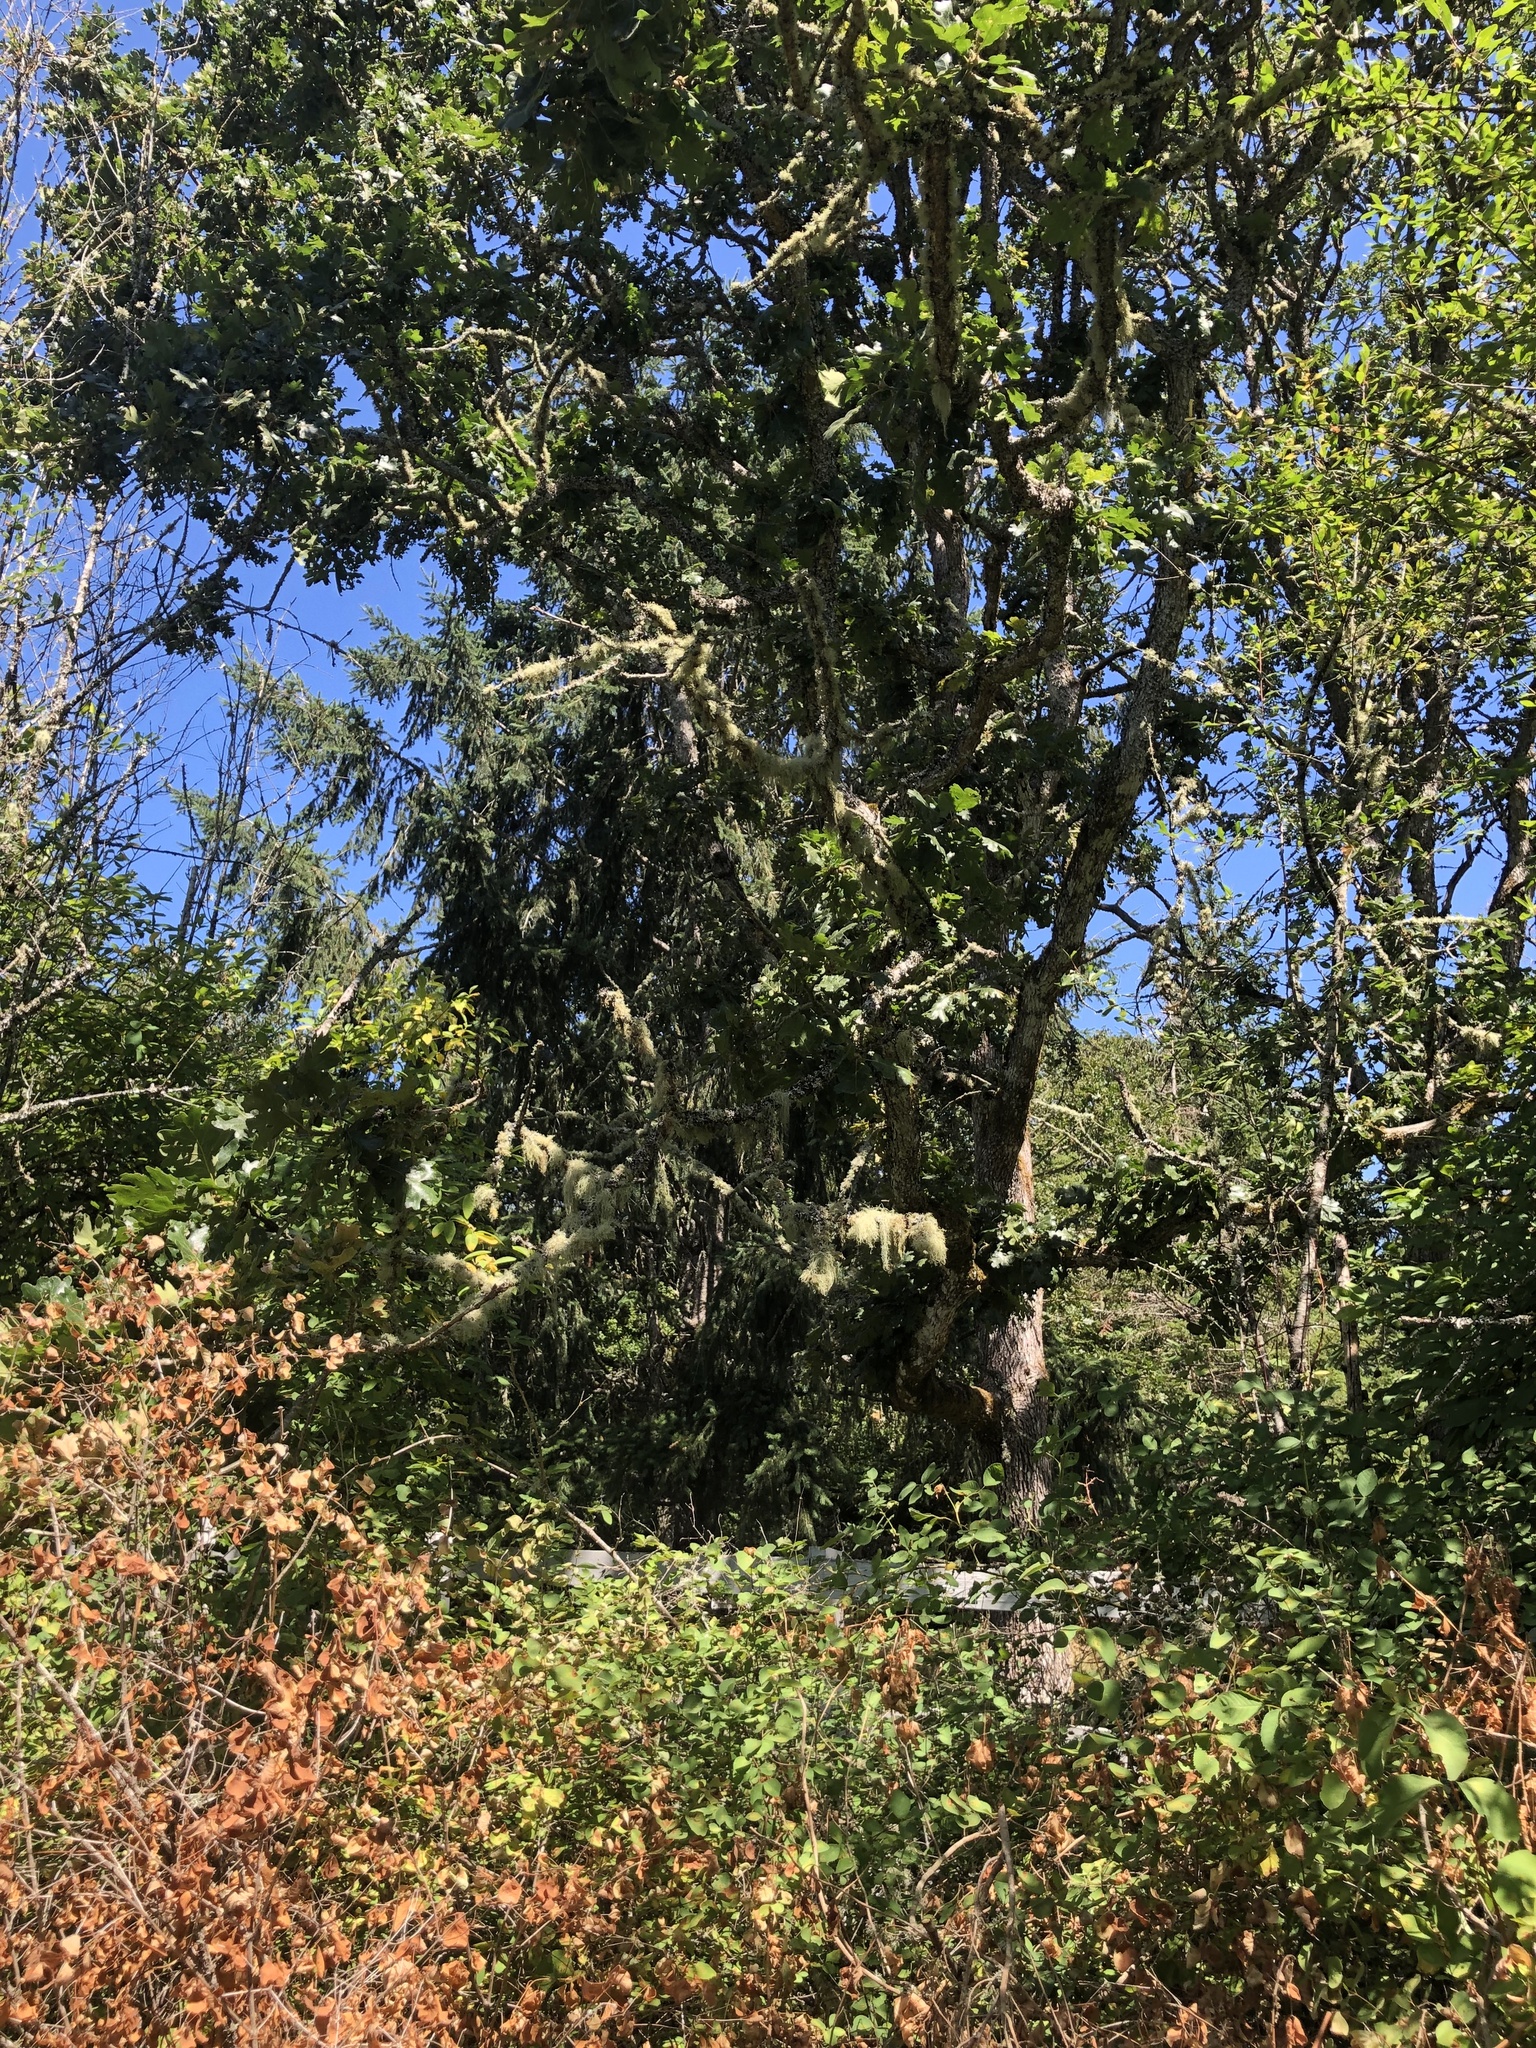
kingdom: Plantae
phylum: Tracheophyta
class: Magnoliopsida
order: Fagales
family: Fagaceae
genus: Quercus
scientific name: Quercus garryana
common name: Garry oak
